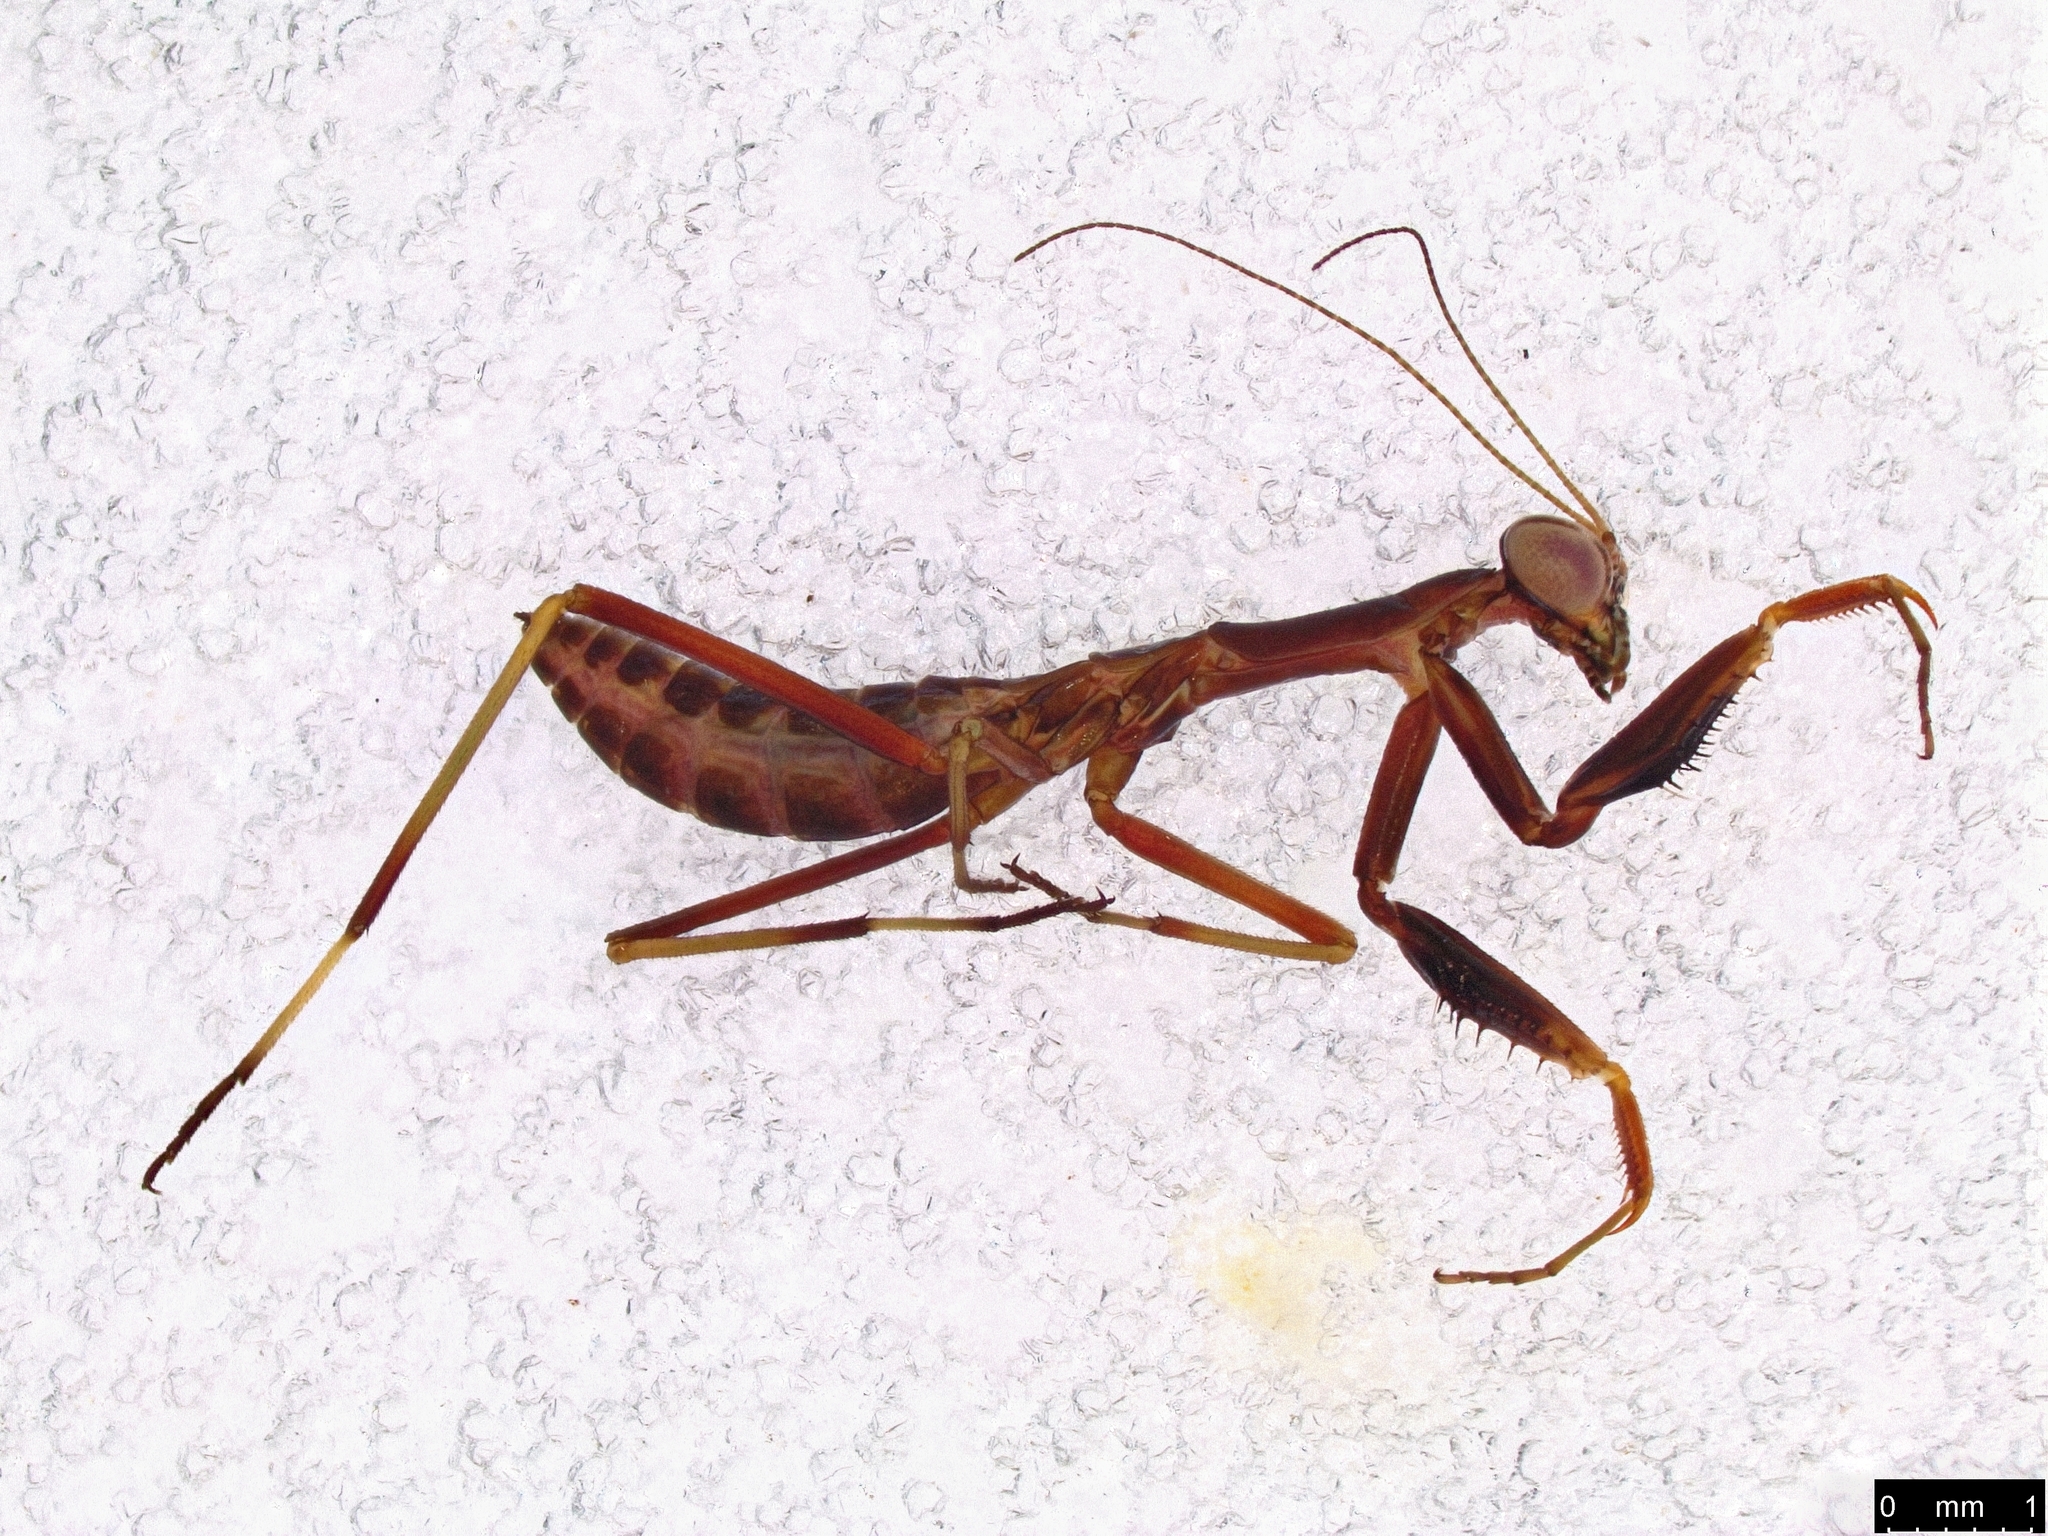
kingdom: Animalia
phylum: Arthropoda
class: Insecta
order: Mantodea
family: Mantidae
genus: Pseudomantis
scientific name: Pseudomantis albofimbriata
